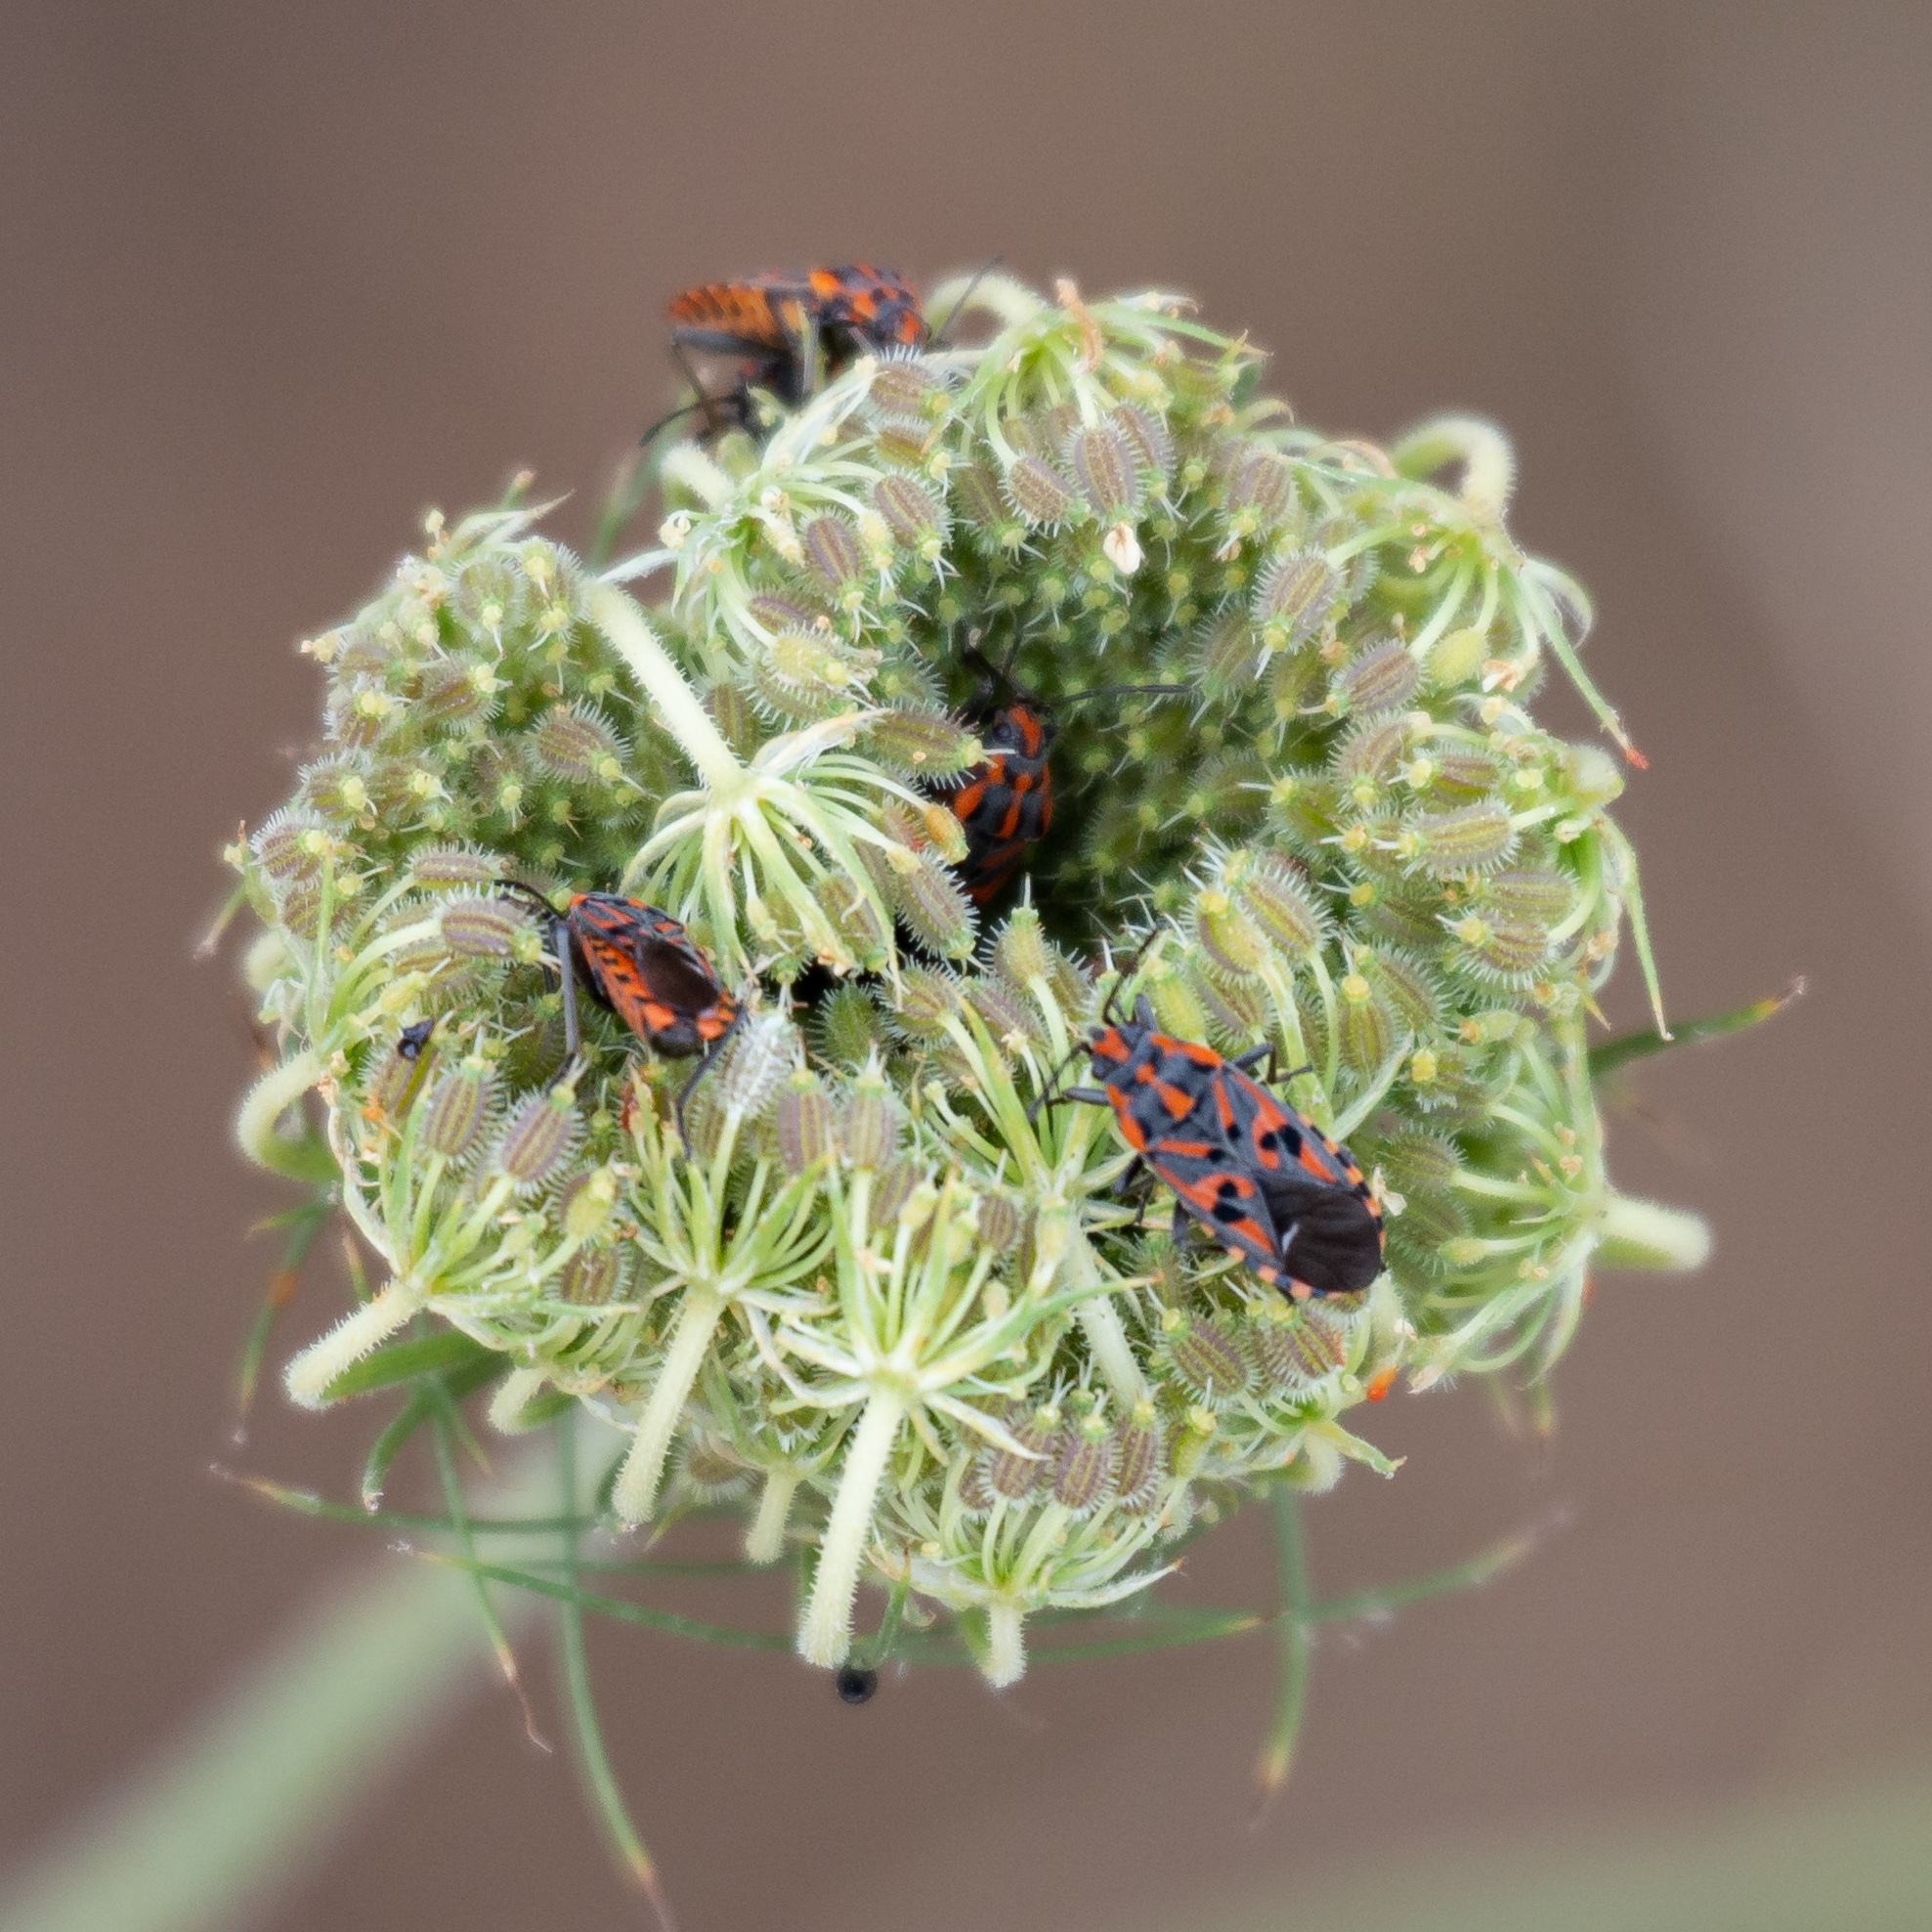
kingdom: Animalia
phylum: Arthropoda
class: Insecta
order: Hemiptera
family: Lygaeidae
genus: Spilostethus
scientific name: Spilostethus saxatilis
